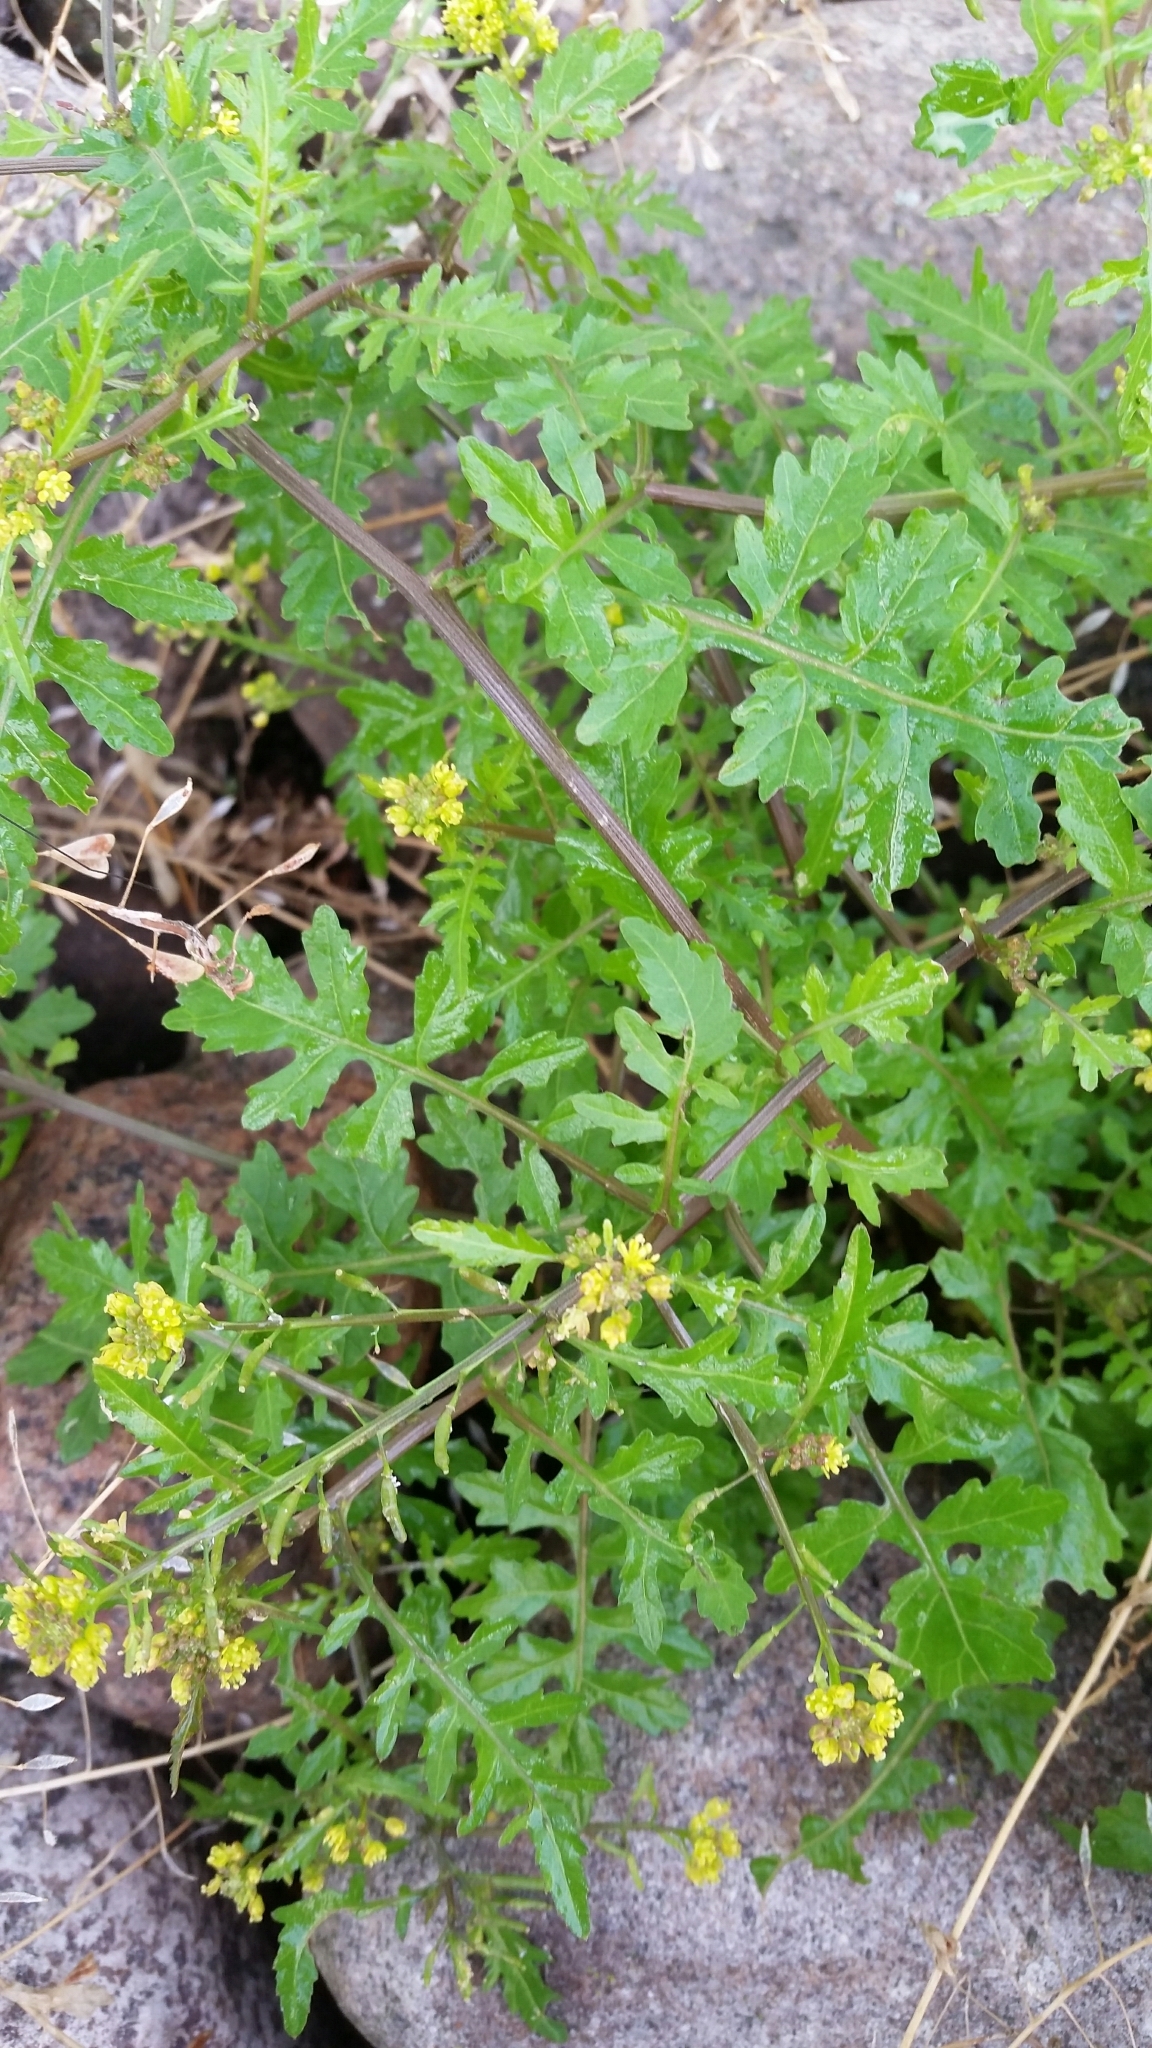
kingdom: Plantae
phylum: Tracheophyta
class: Magnoliopsida
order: Brassicales
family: Brassicaceae
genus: Rorippa
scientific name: Rorippa palustris
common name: Marsh yellow-cress
